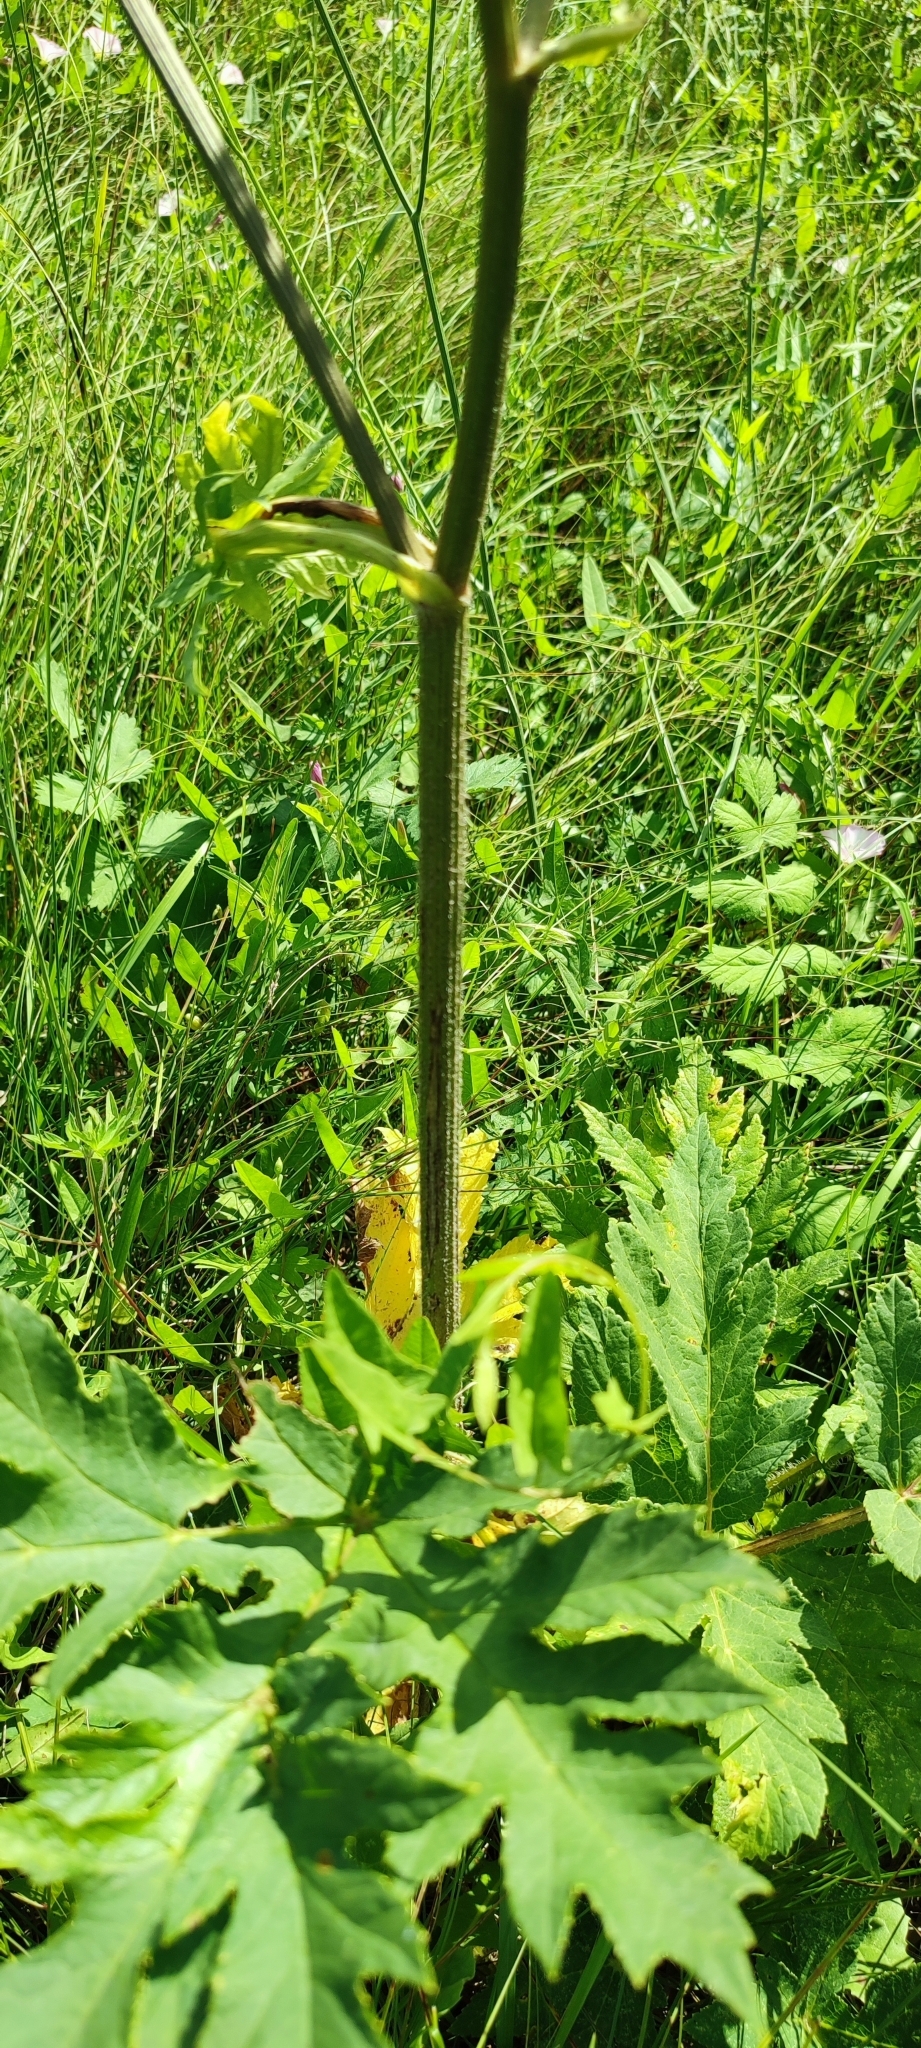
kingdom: Plantae
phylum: Tracheophyta
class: Magnoliopsida
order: Apiales
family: Apiaceae
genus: Heracleum
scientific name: Heracleum sphondylium
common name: Hogweed
